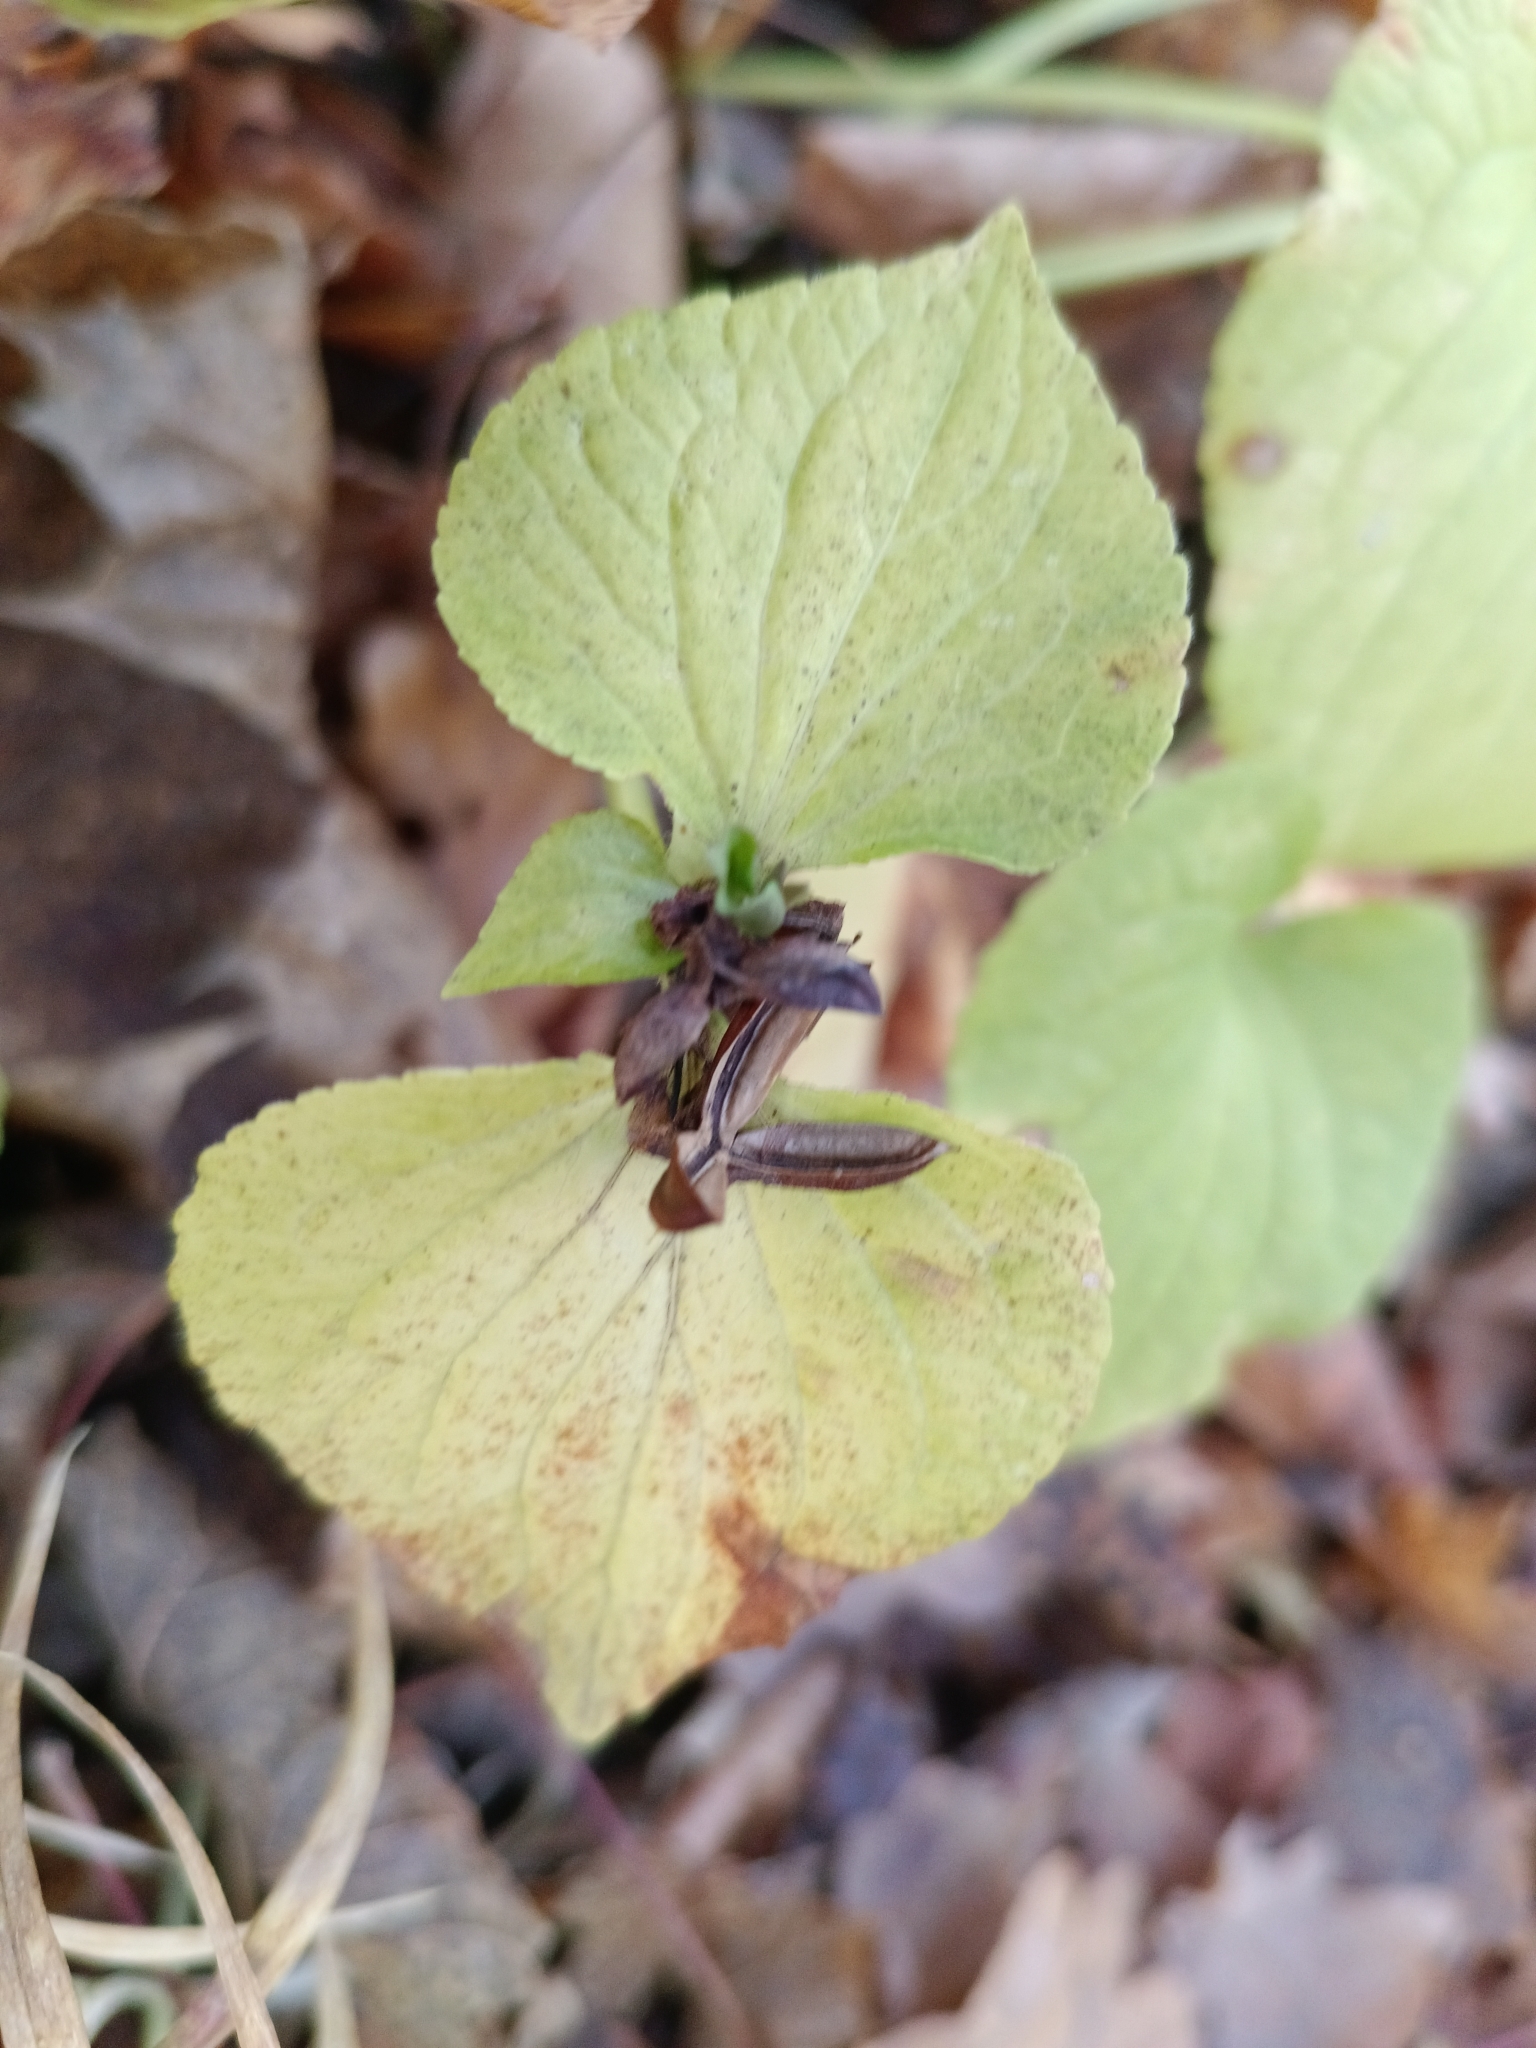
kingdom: Plantae
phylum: Tracheophyta
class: Magnoliopsida
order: Malpighiales
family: Violaceae
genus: Viola
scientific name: Viola mirabilis
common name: Wonder violet
